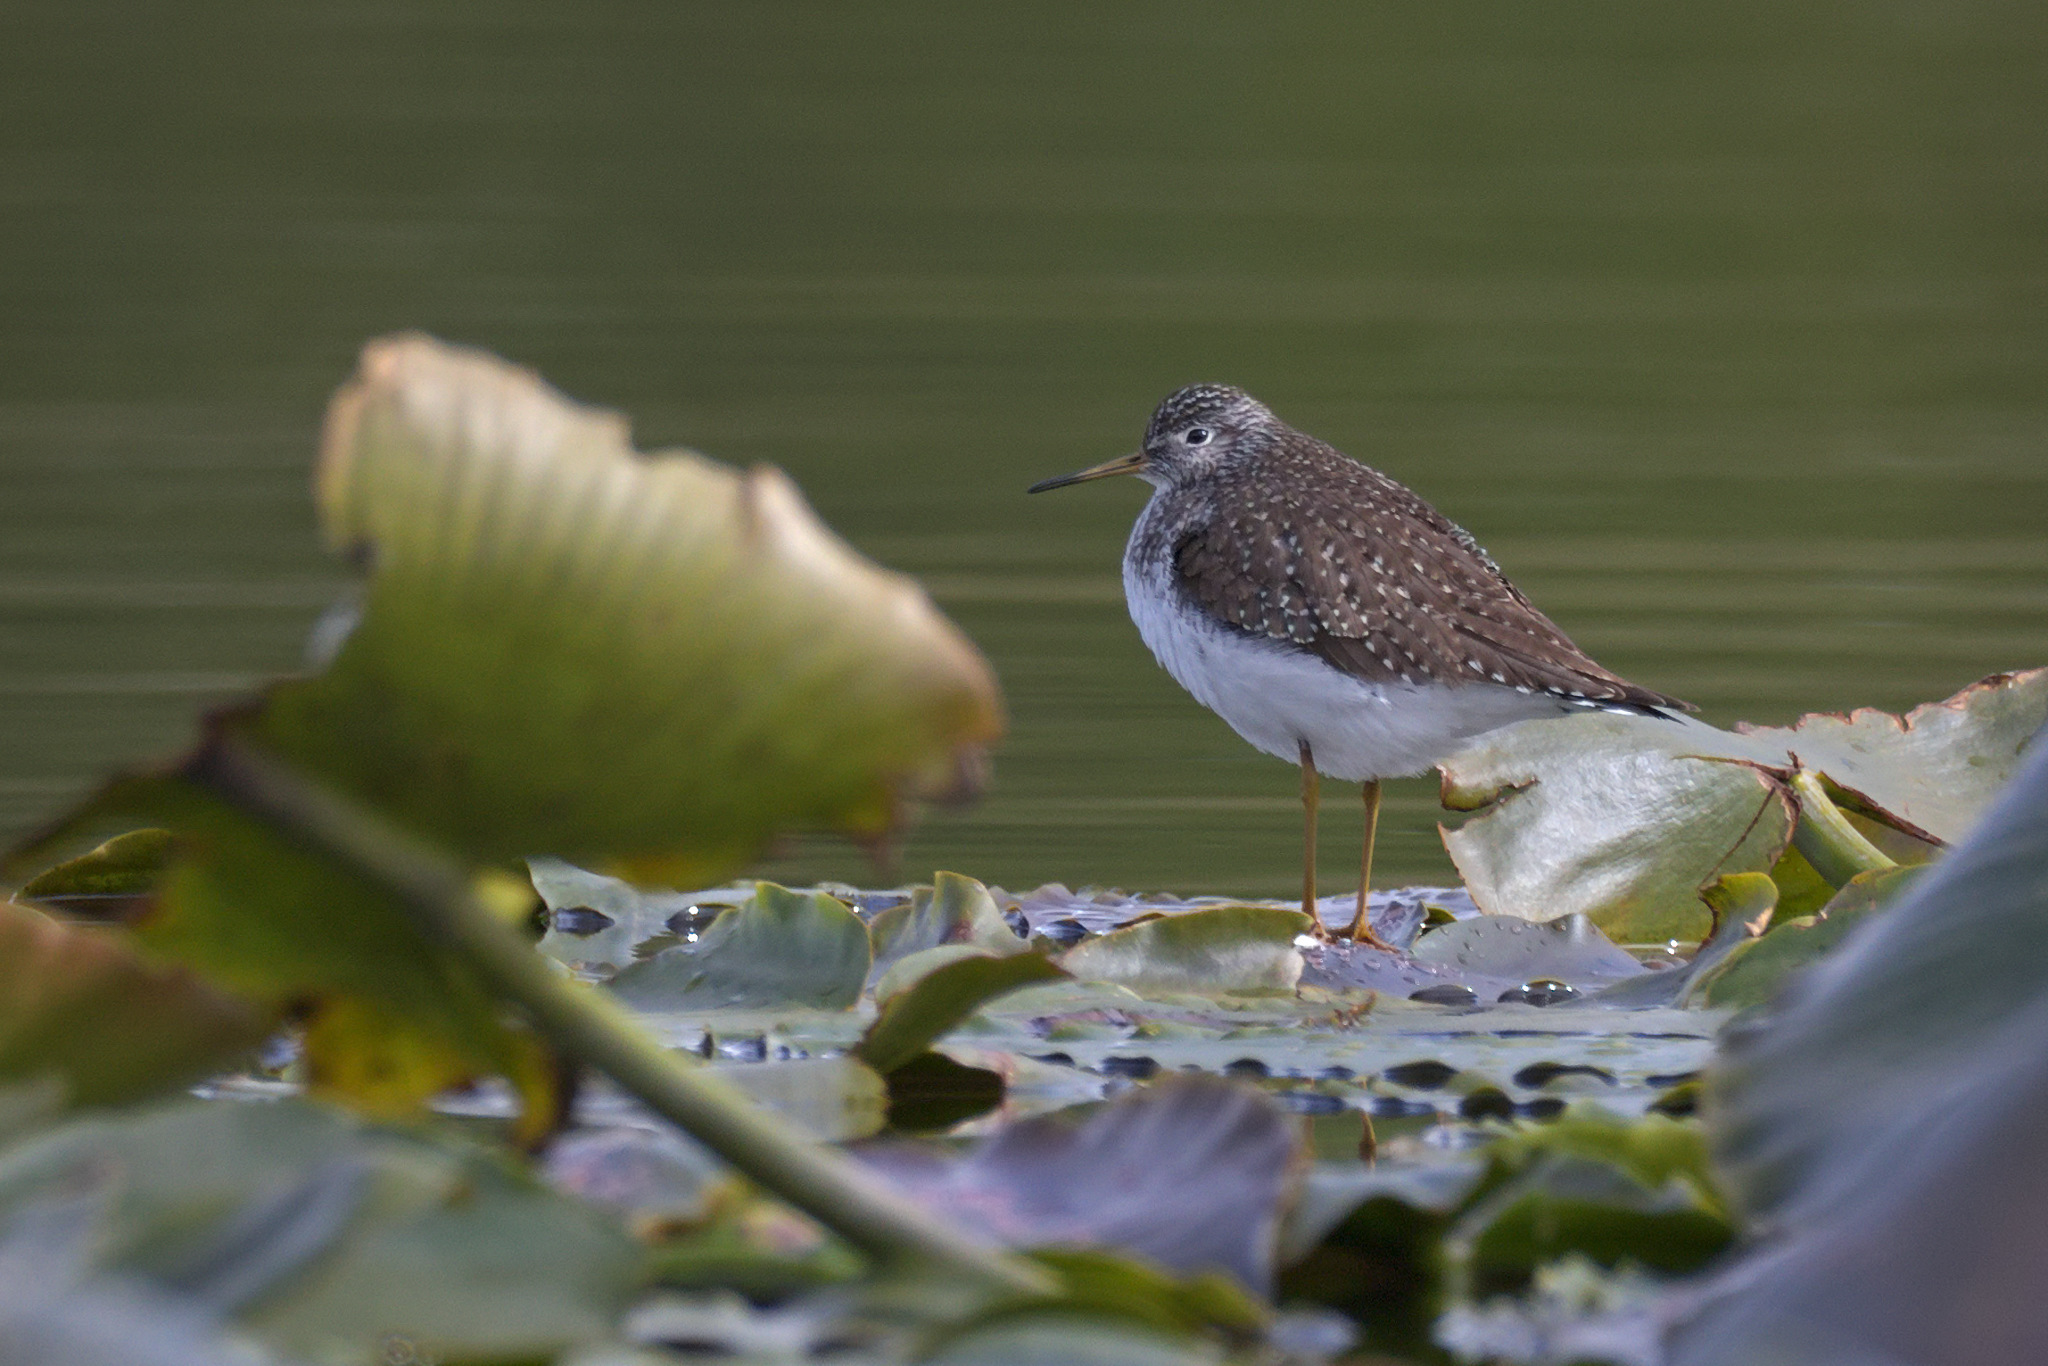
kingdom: Animalia
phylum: Chordata
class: Aves
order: Charadriiformes
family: Scolopacidae
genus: Tringa
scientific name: Tringa solitaria
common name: Solitary sandpiper
